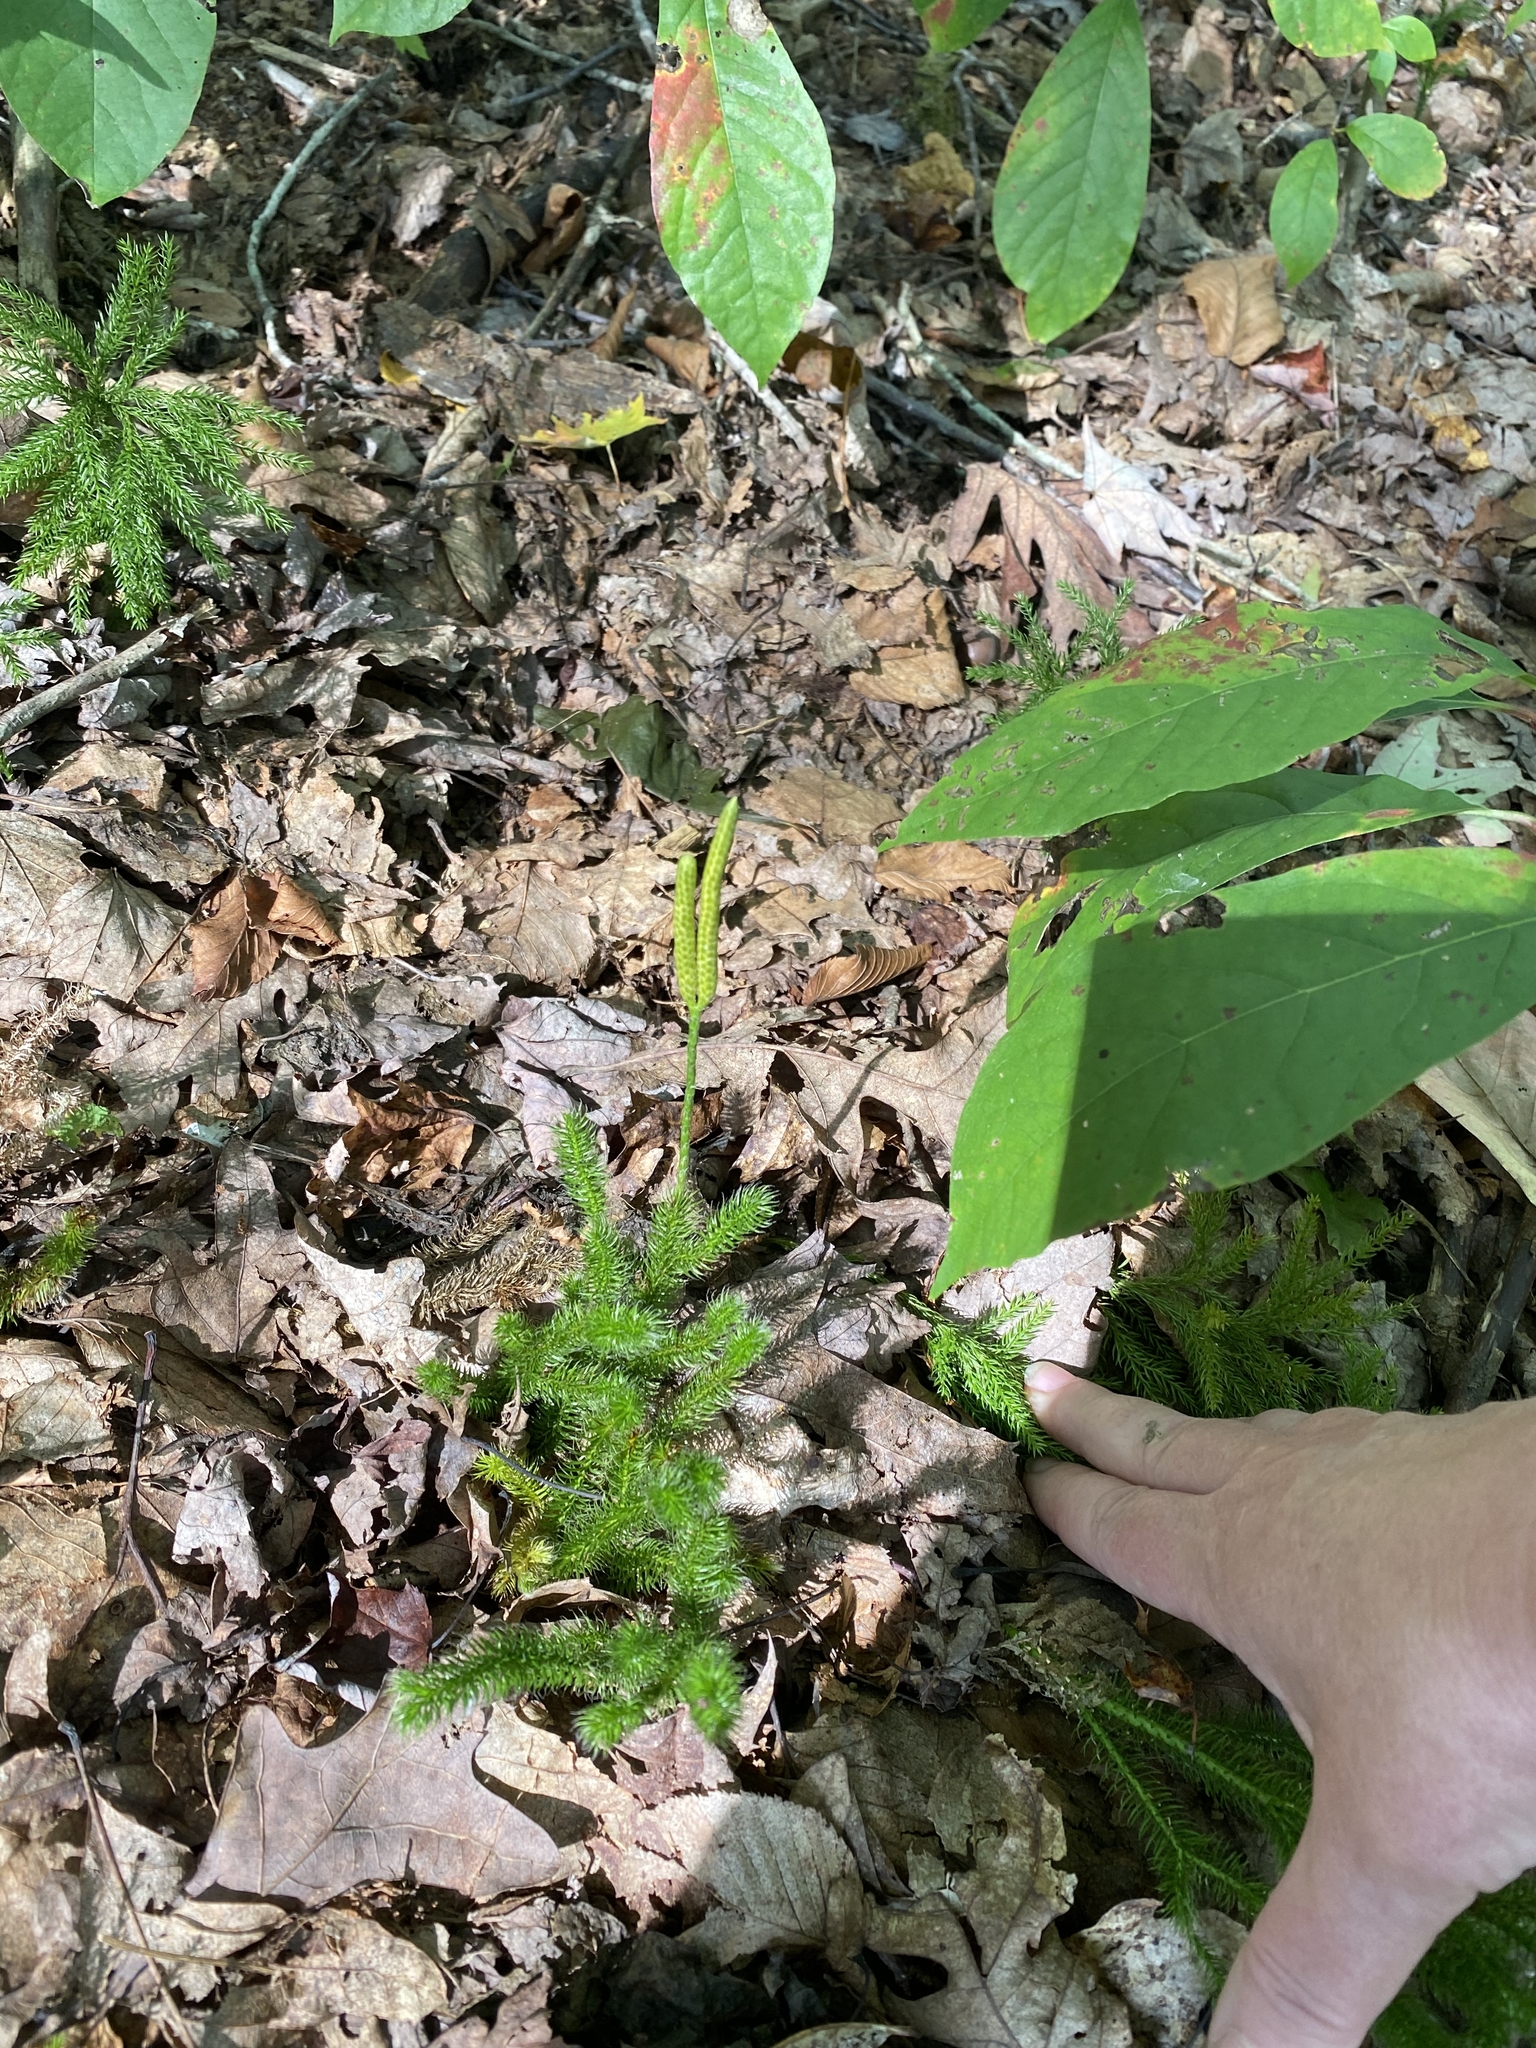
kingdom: Plantae
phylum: Tracheophyta
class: Lycopodiopsida
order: Lycopodiales
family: Lycopodiaceae
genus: Lycopodium
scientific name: Lycopodium clavatum
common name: Stag's-horn clubmoss
